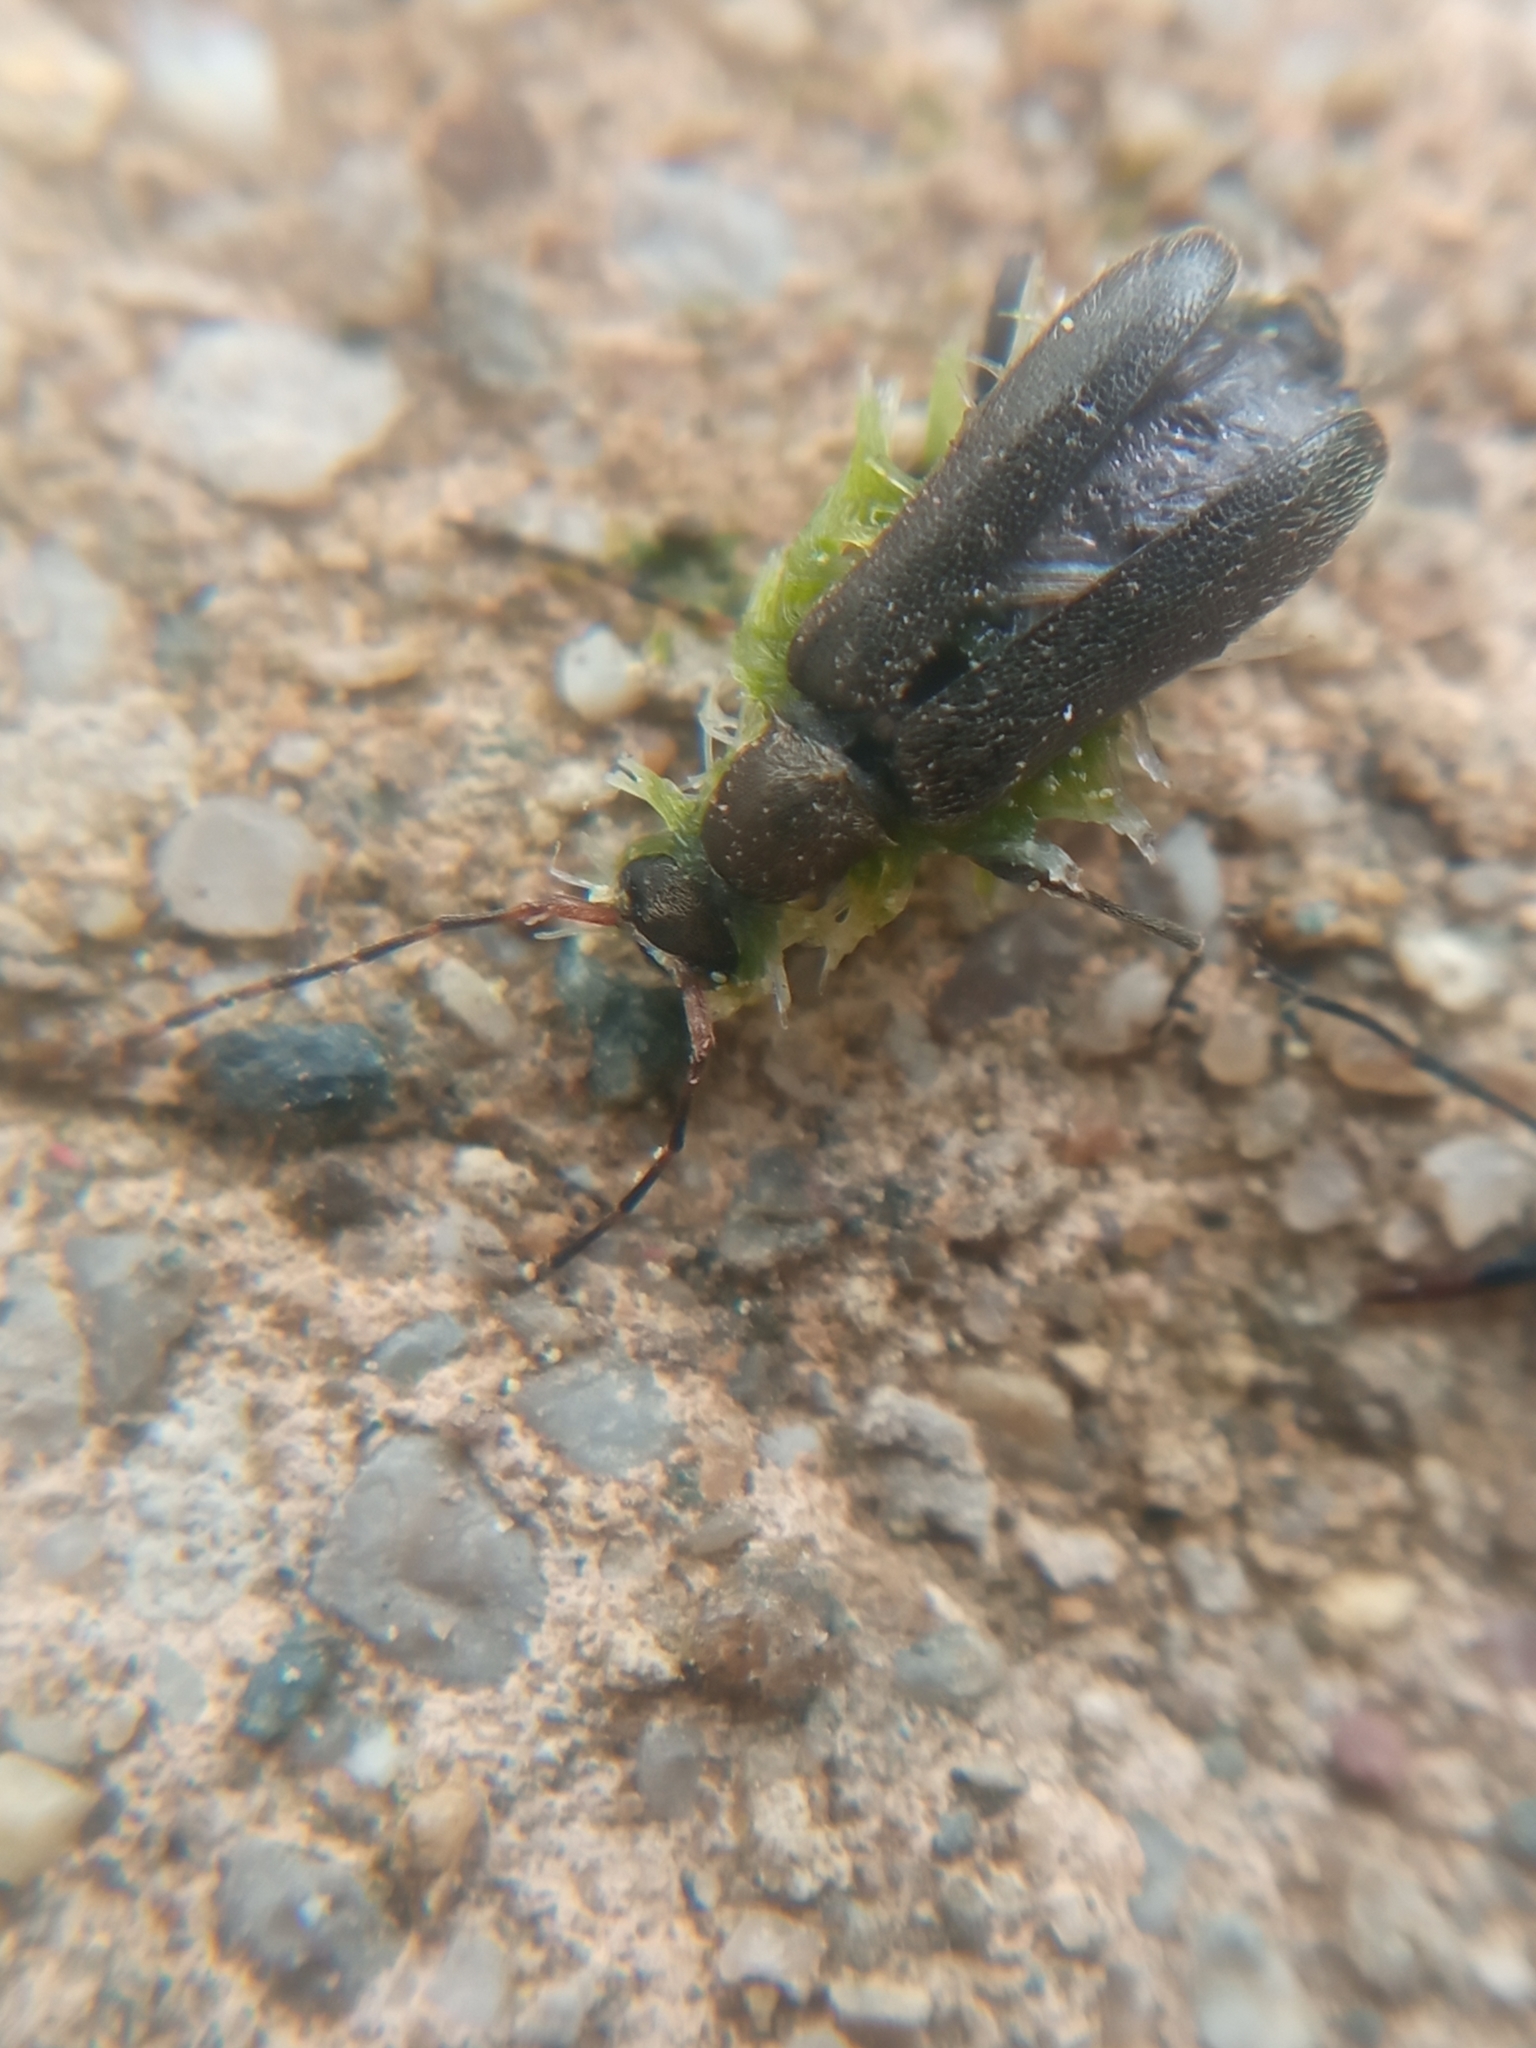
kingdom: Animalia
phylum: Arthropoda
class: Insecta
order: Coleoptera
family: Cerambycidae
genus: Grammoptera
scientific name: Grammoptera ruficornis
